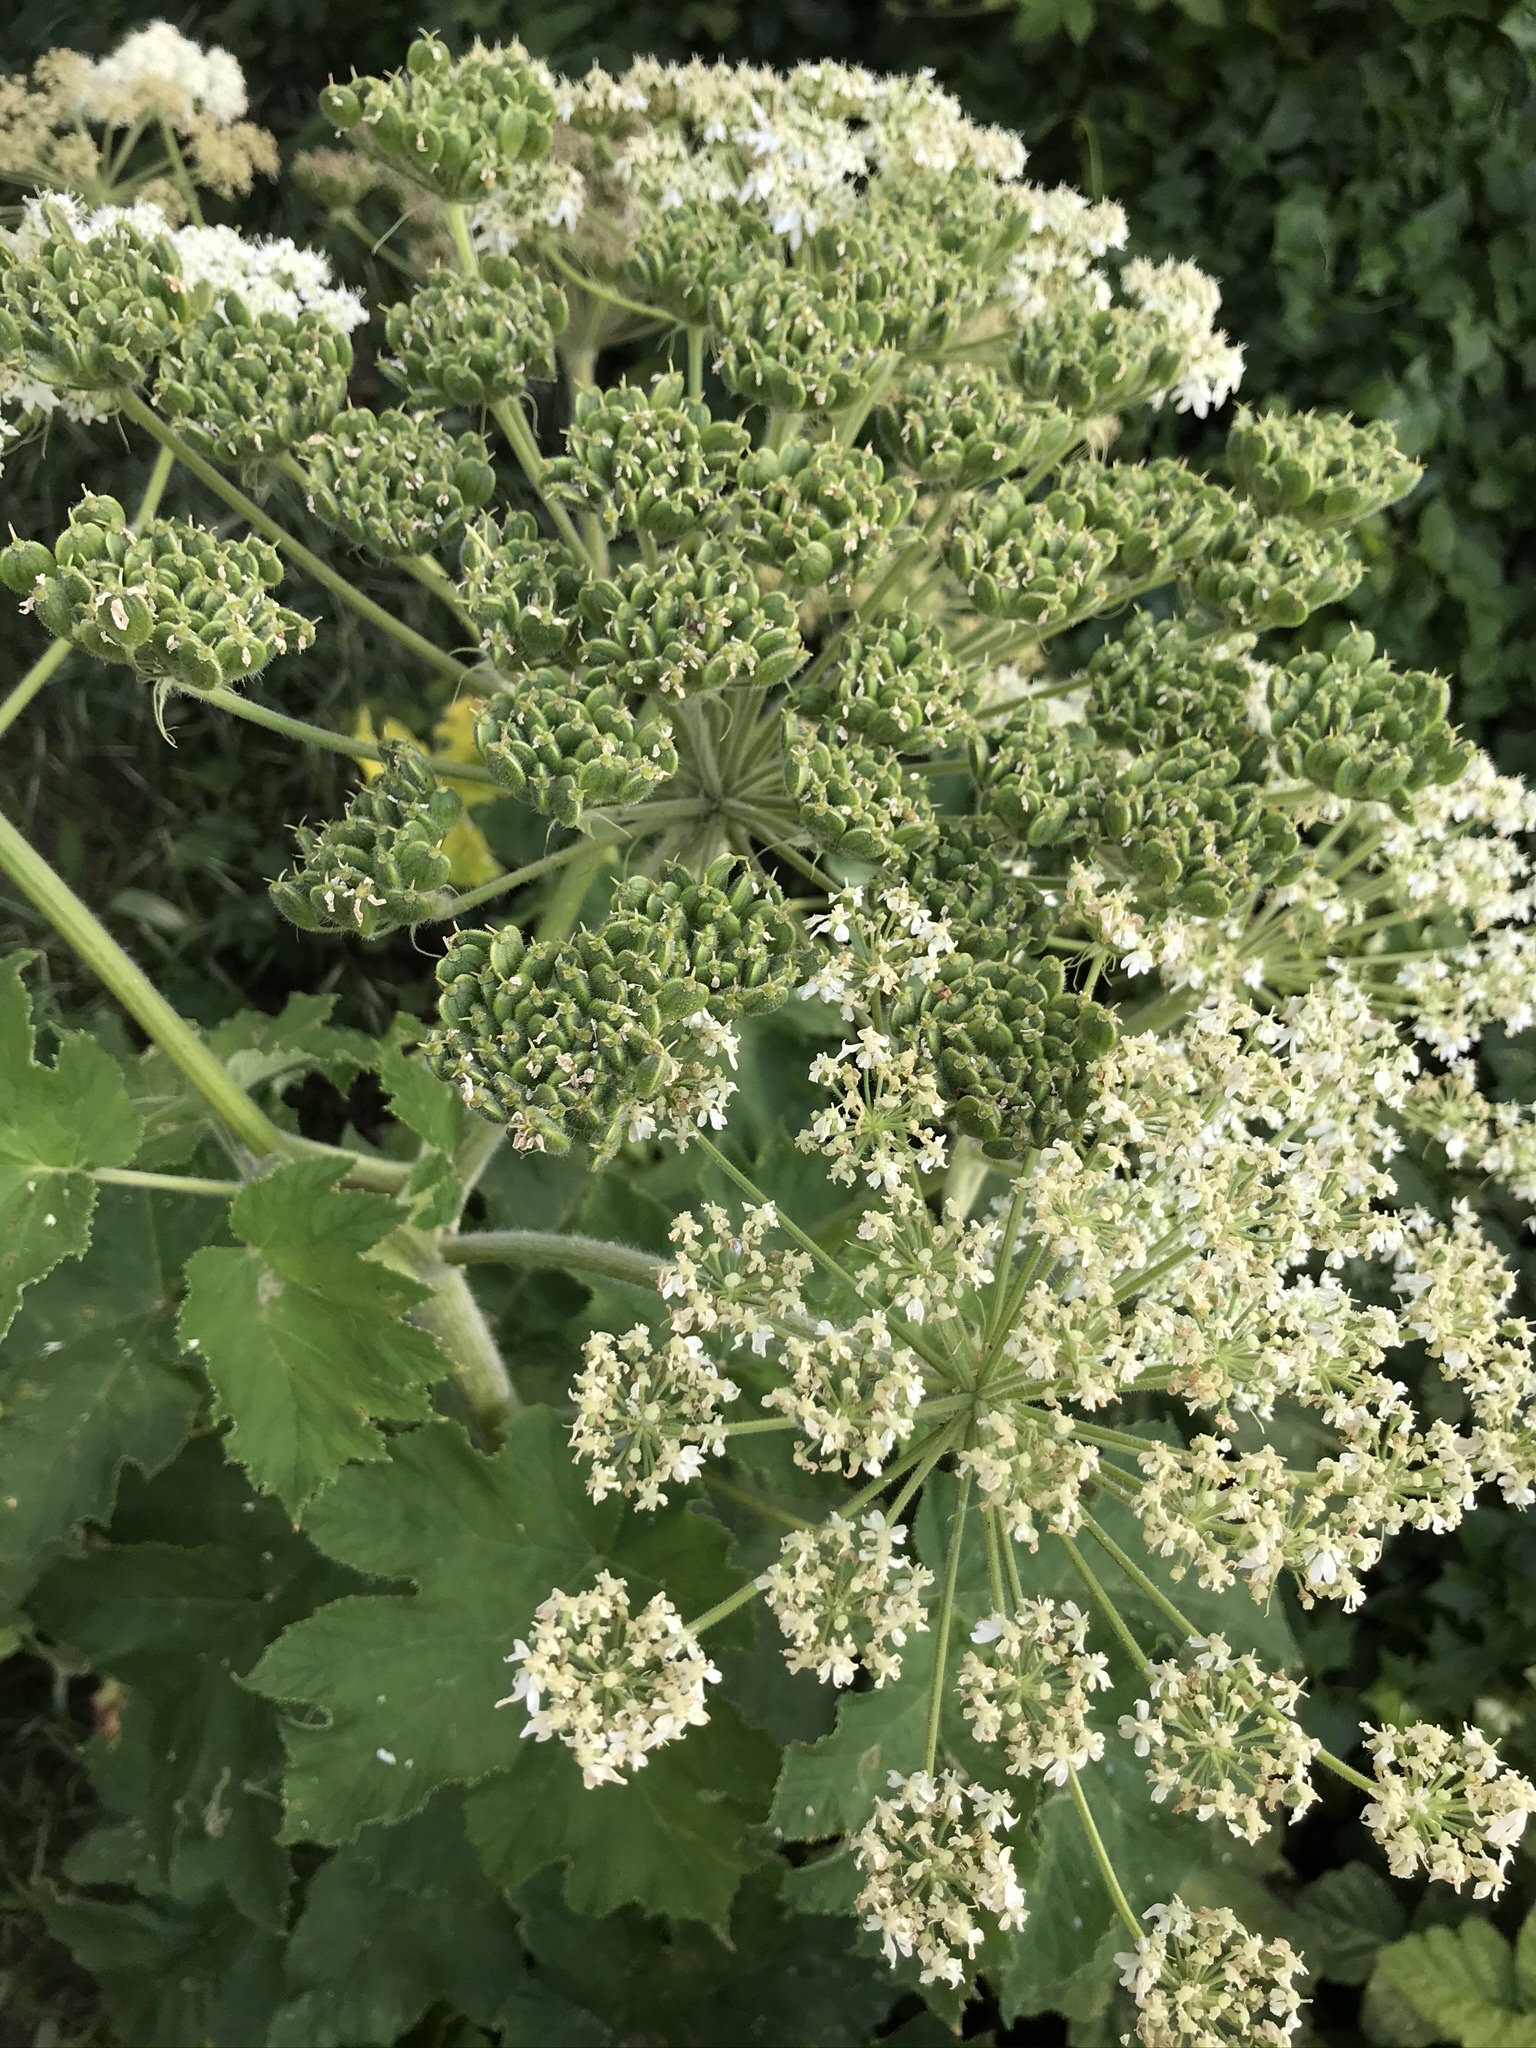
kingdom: Plantae
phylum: Tracheophyta
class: Magnoliopsida
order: Apiales
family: Apiaceae
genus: Heracleum
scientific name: Heracleum maximum
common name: American cow parsnip
